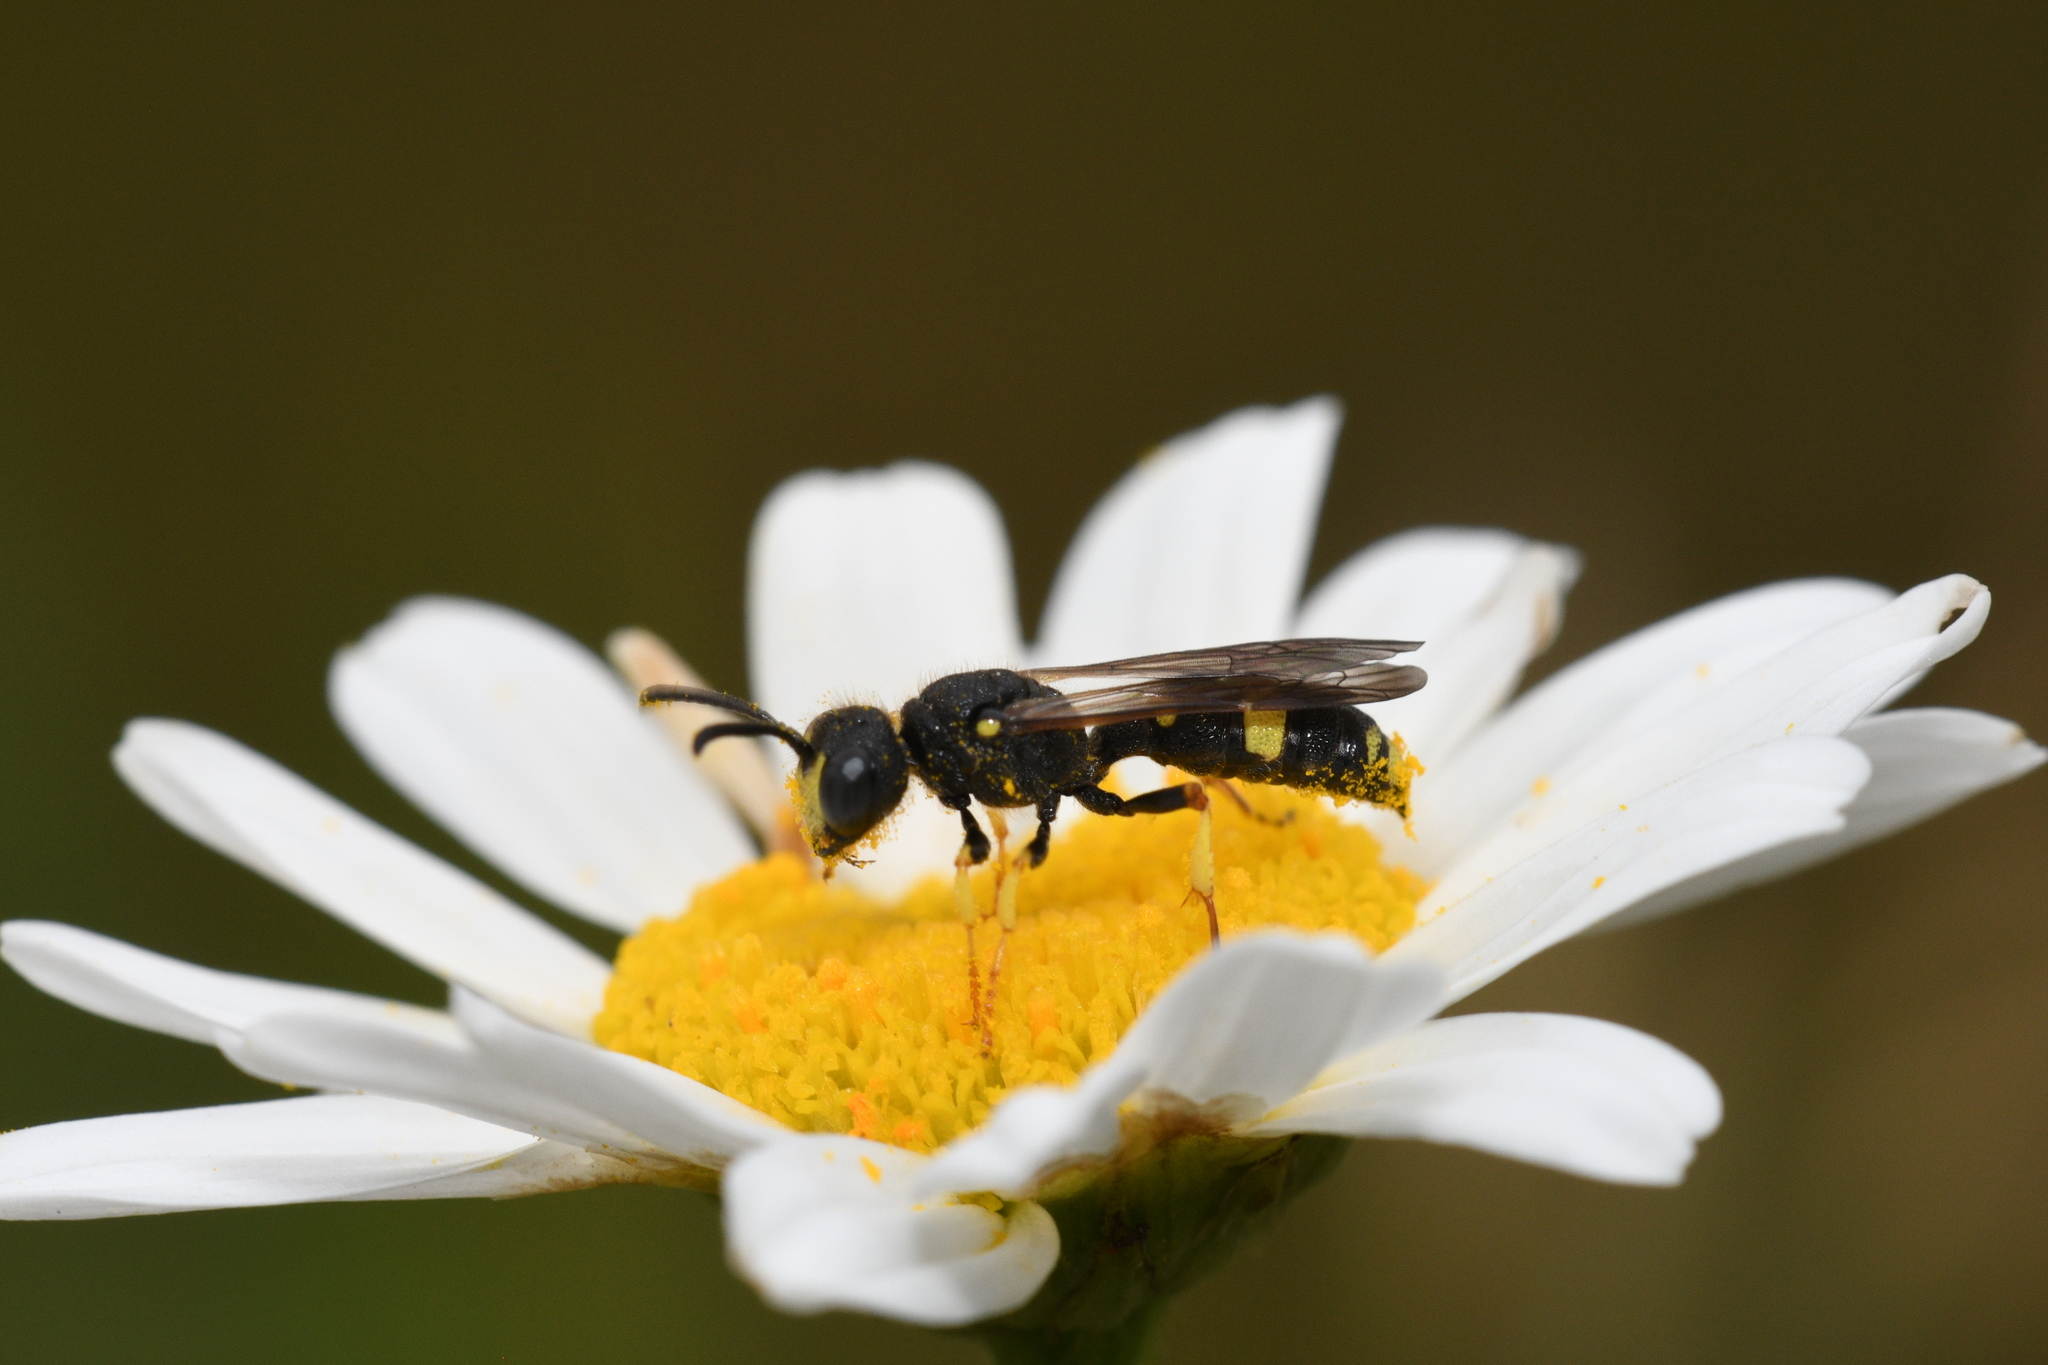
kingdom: Animalia
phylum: Arthropoda
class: Insecta
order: Hymenoptera
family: Crabronidae
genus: Cerceris
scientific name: Cerceris rybyensis
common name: Ornate tailed digger wasp
